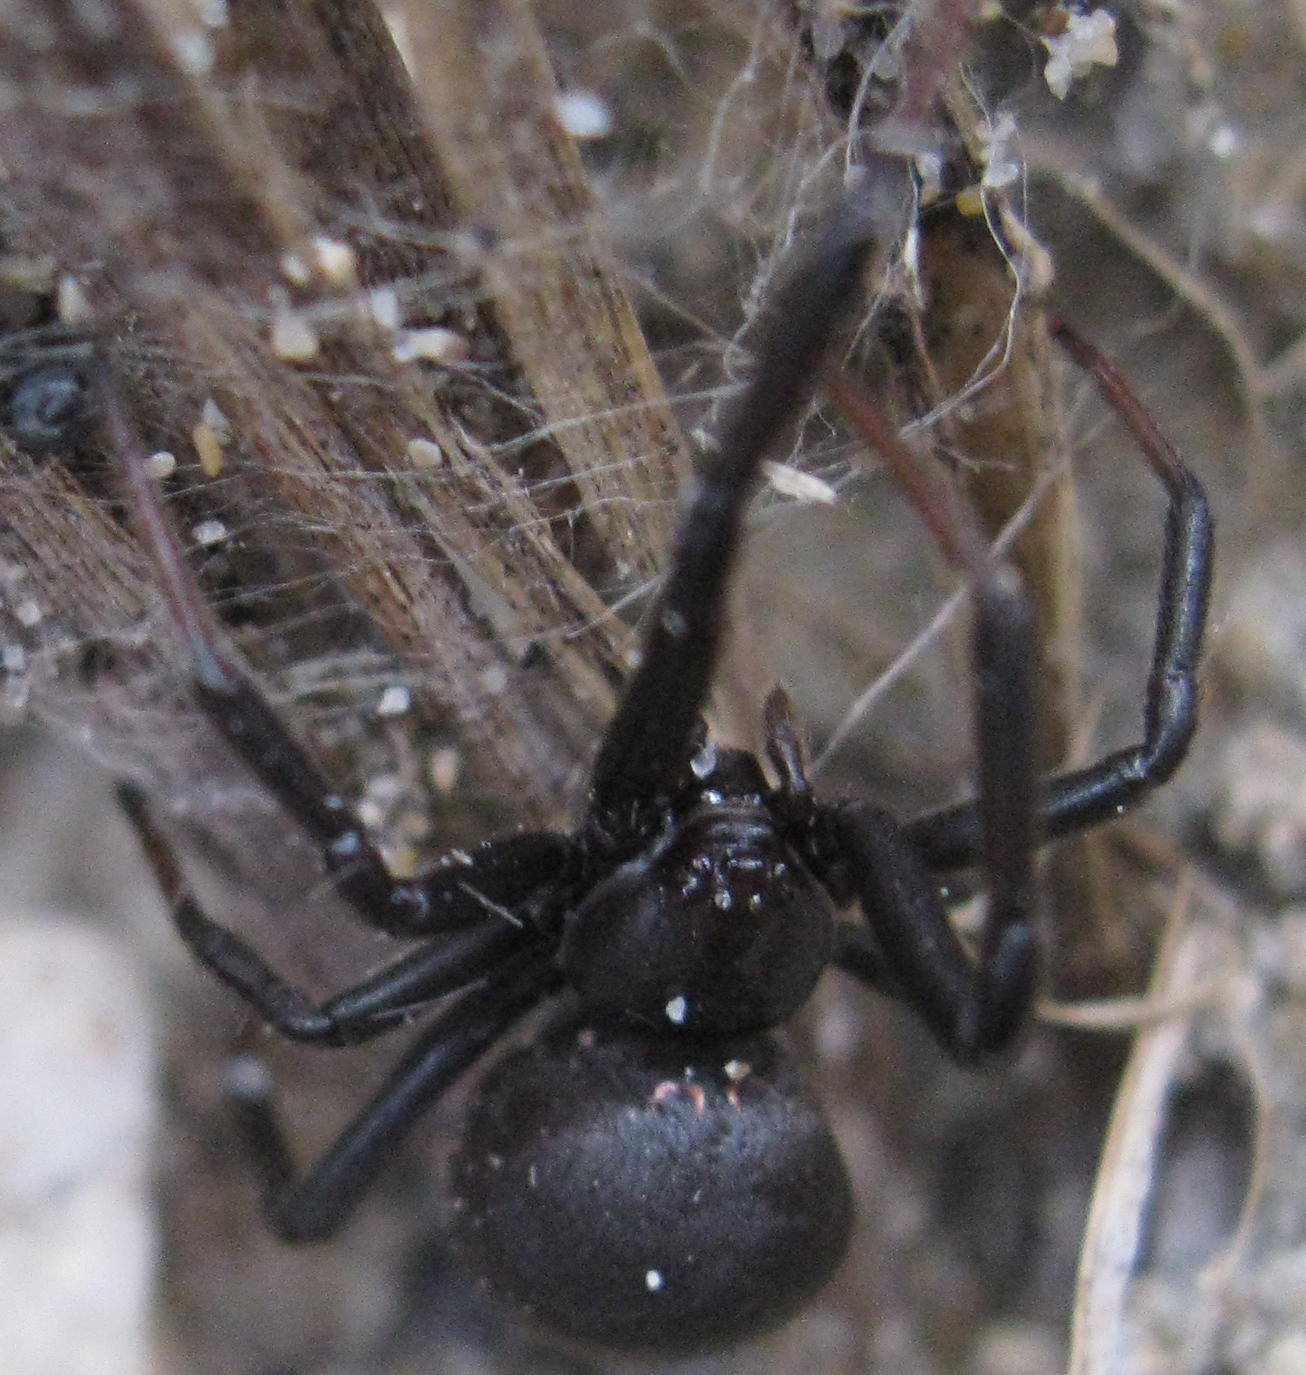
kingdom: Animalia
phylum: Arthropoda
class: Arachnida
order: Araneae
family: Theridiidae
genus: Latrodectus
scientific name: Latrodectus katipo
